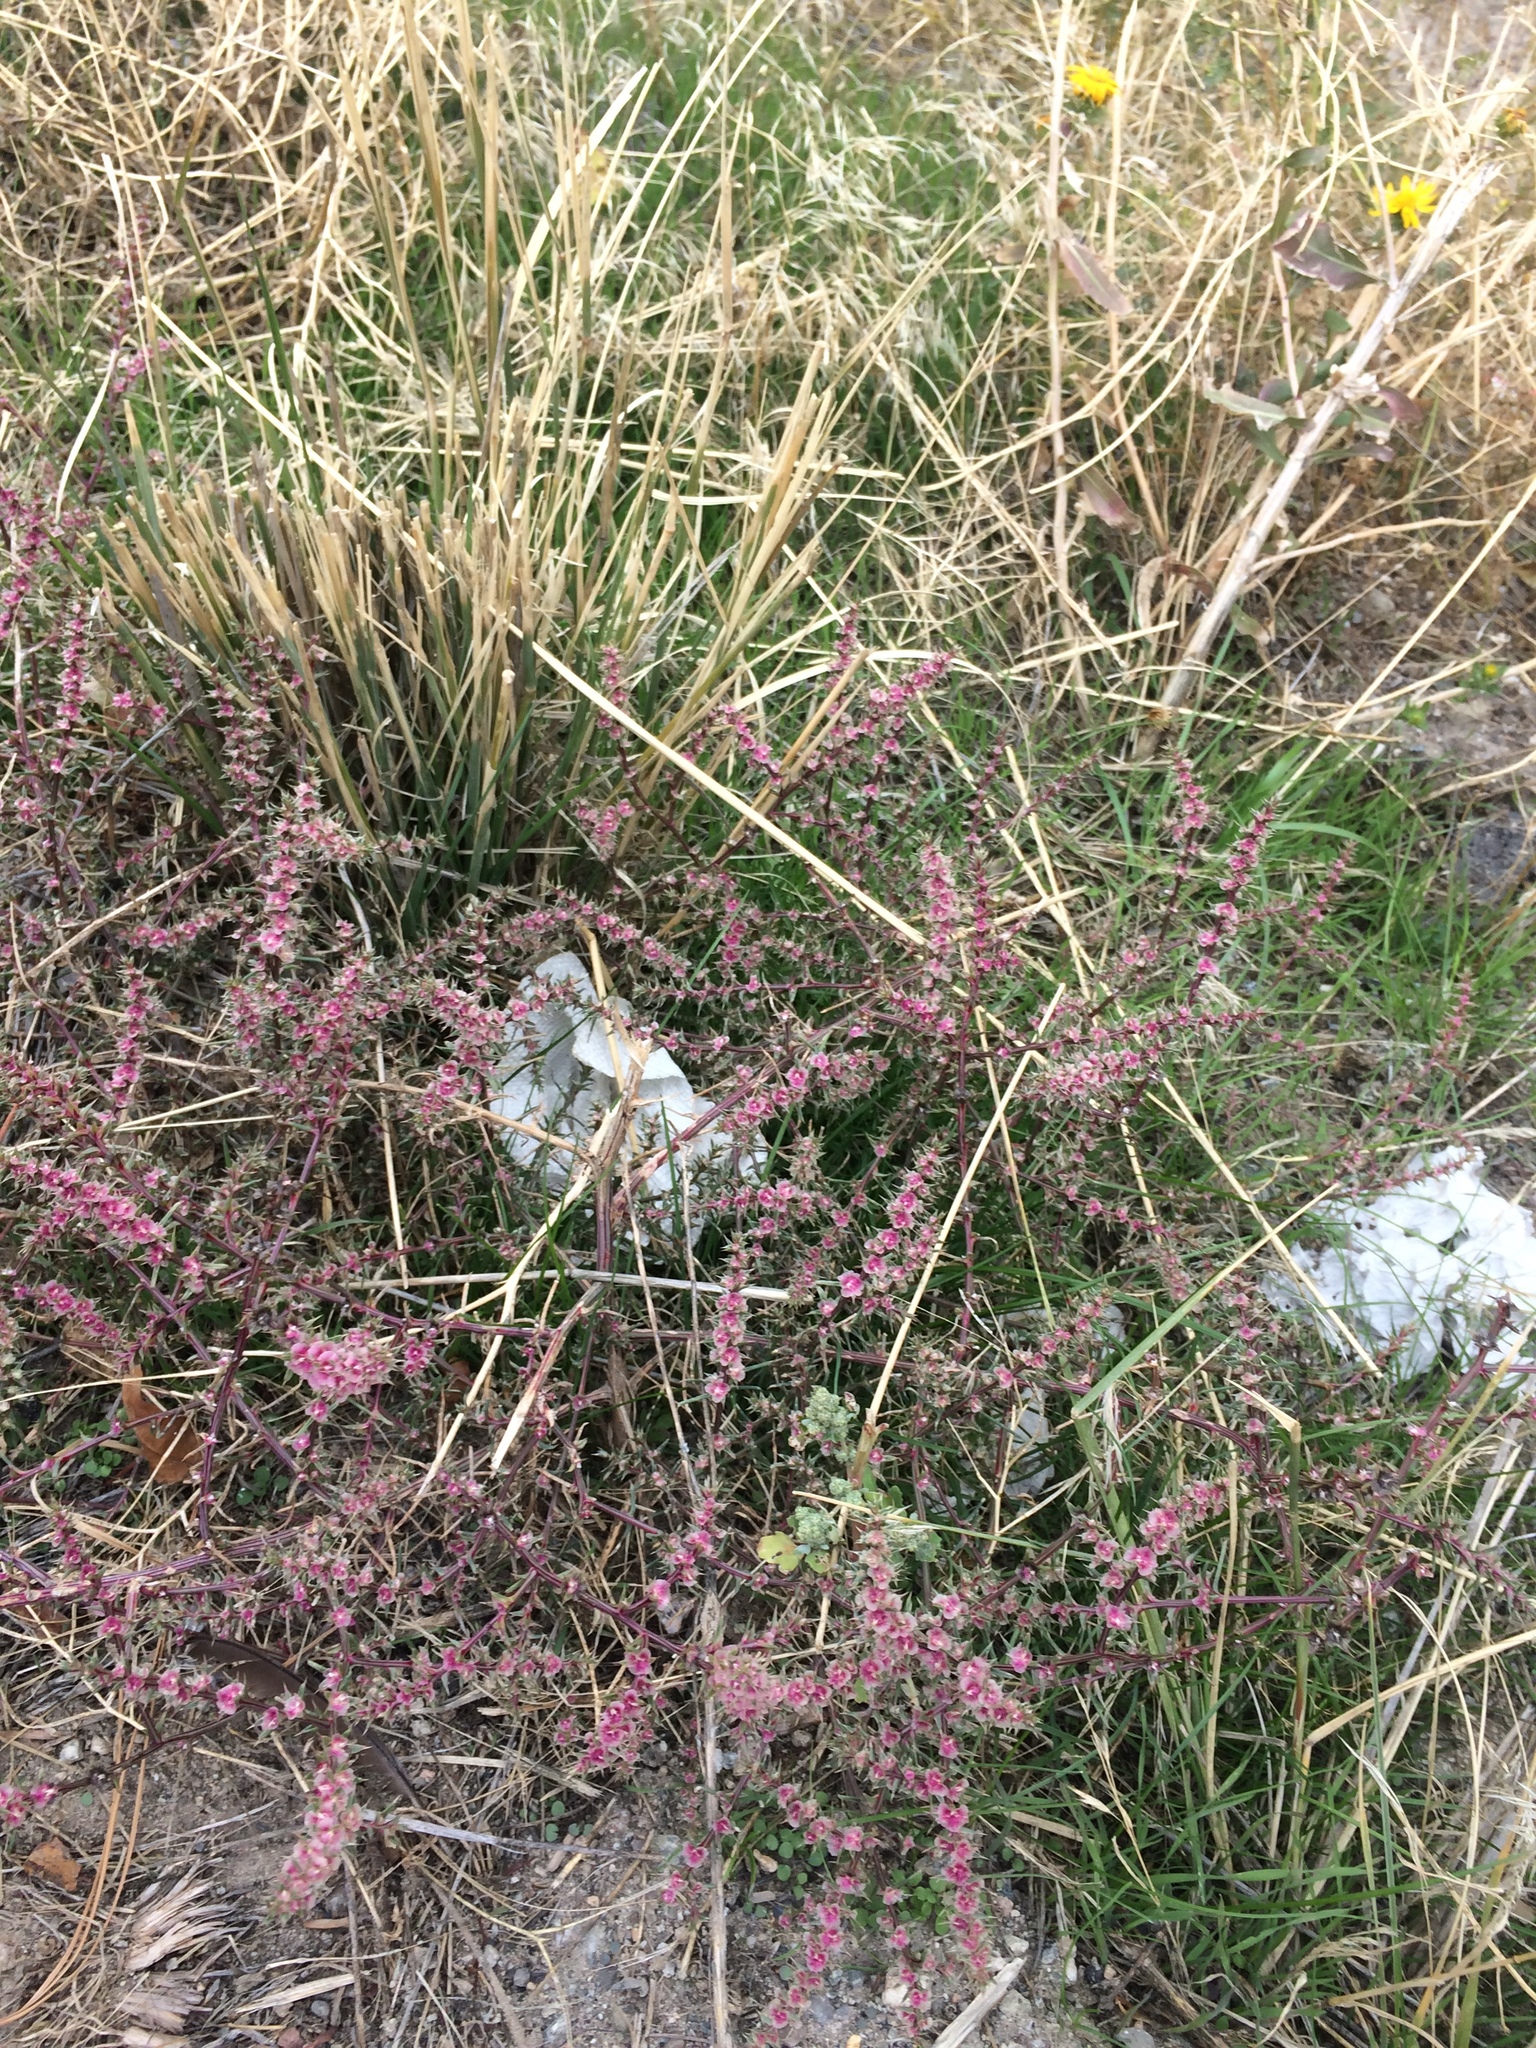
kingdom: Plantae
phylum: Tracheophyta
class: Magnoliopsida
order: Caryophyllales
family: Amaranthaceae
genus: Salsola
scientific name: Salsola tragus
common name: Prickly russian thistle
